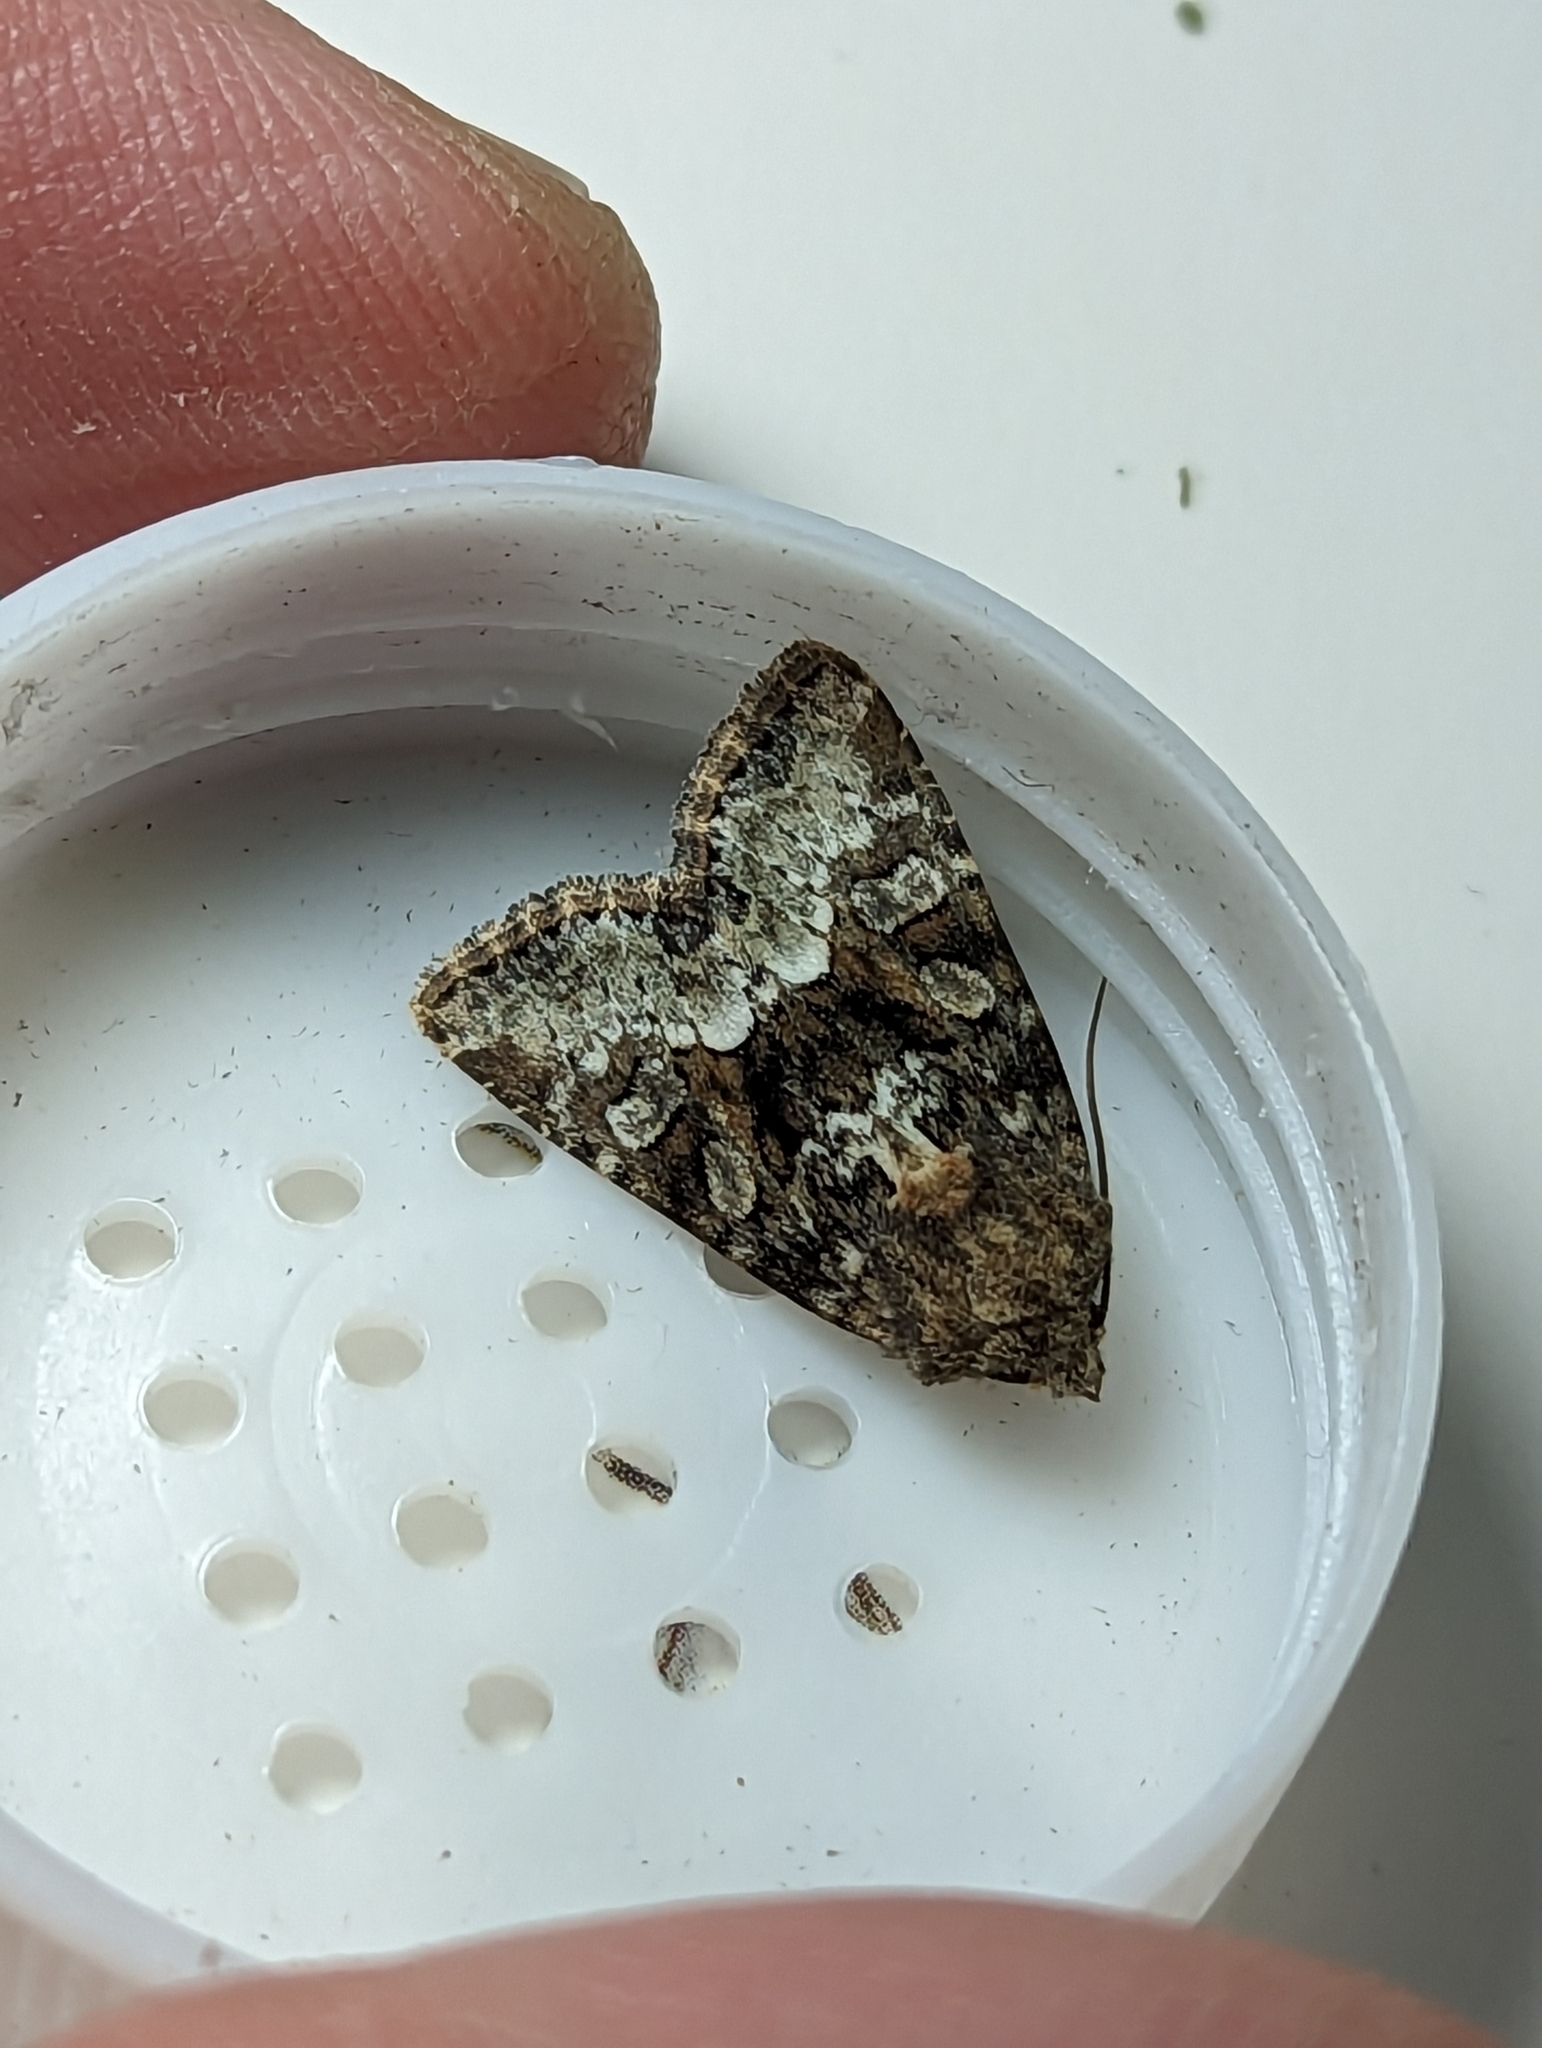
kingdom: Animalia
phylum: Arthropoda
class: Insecta
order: Lepidoptera
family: Noctuidae
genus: Oligia
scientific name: Oligia strigilis
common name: Marbled minor
